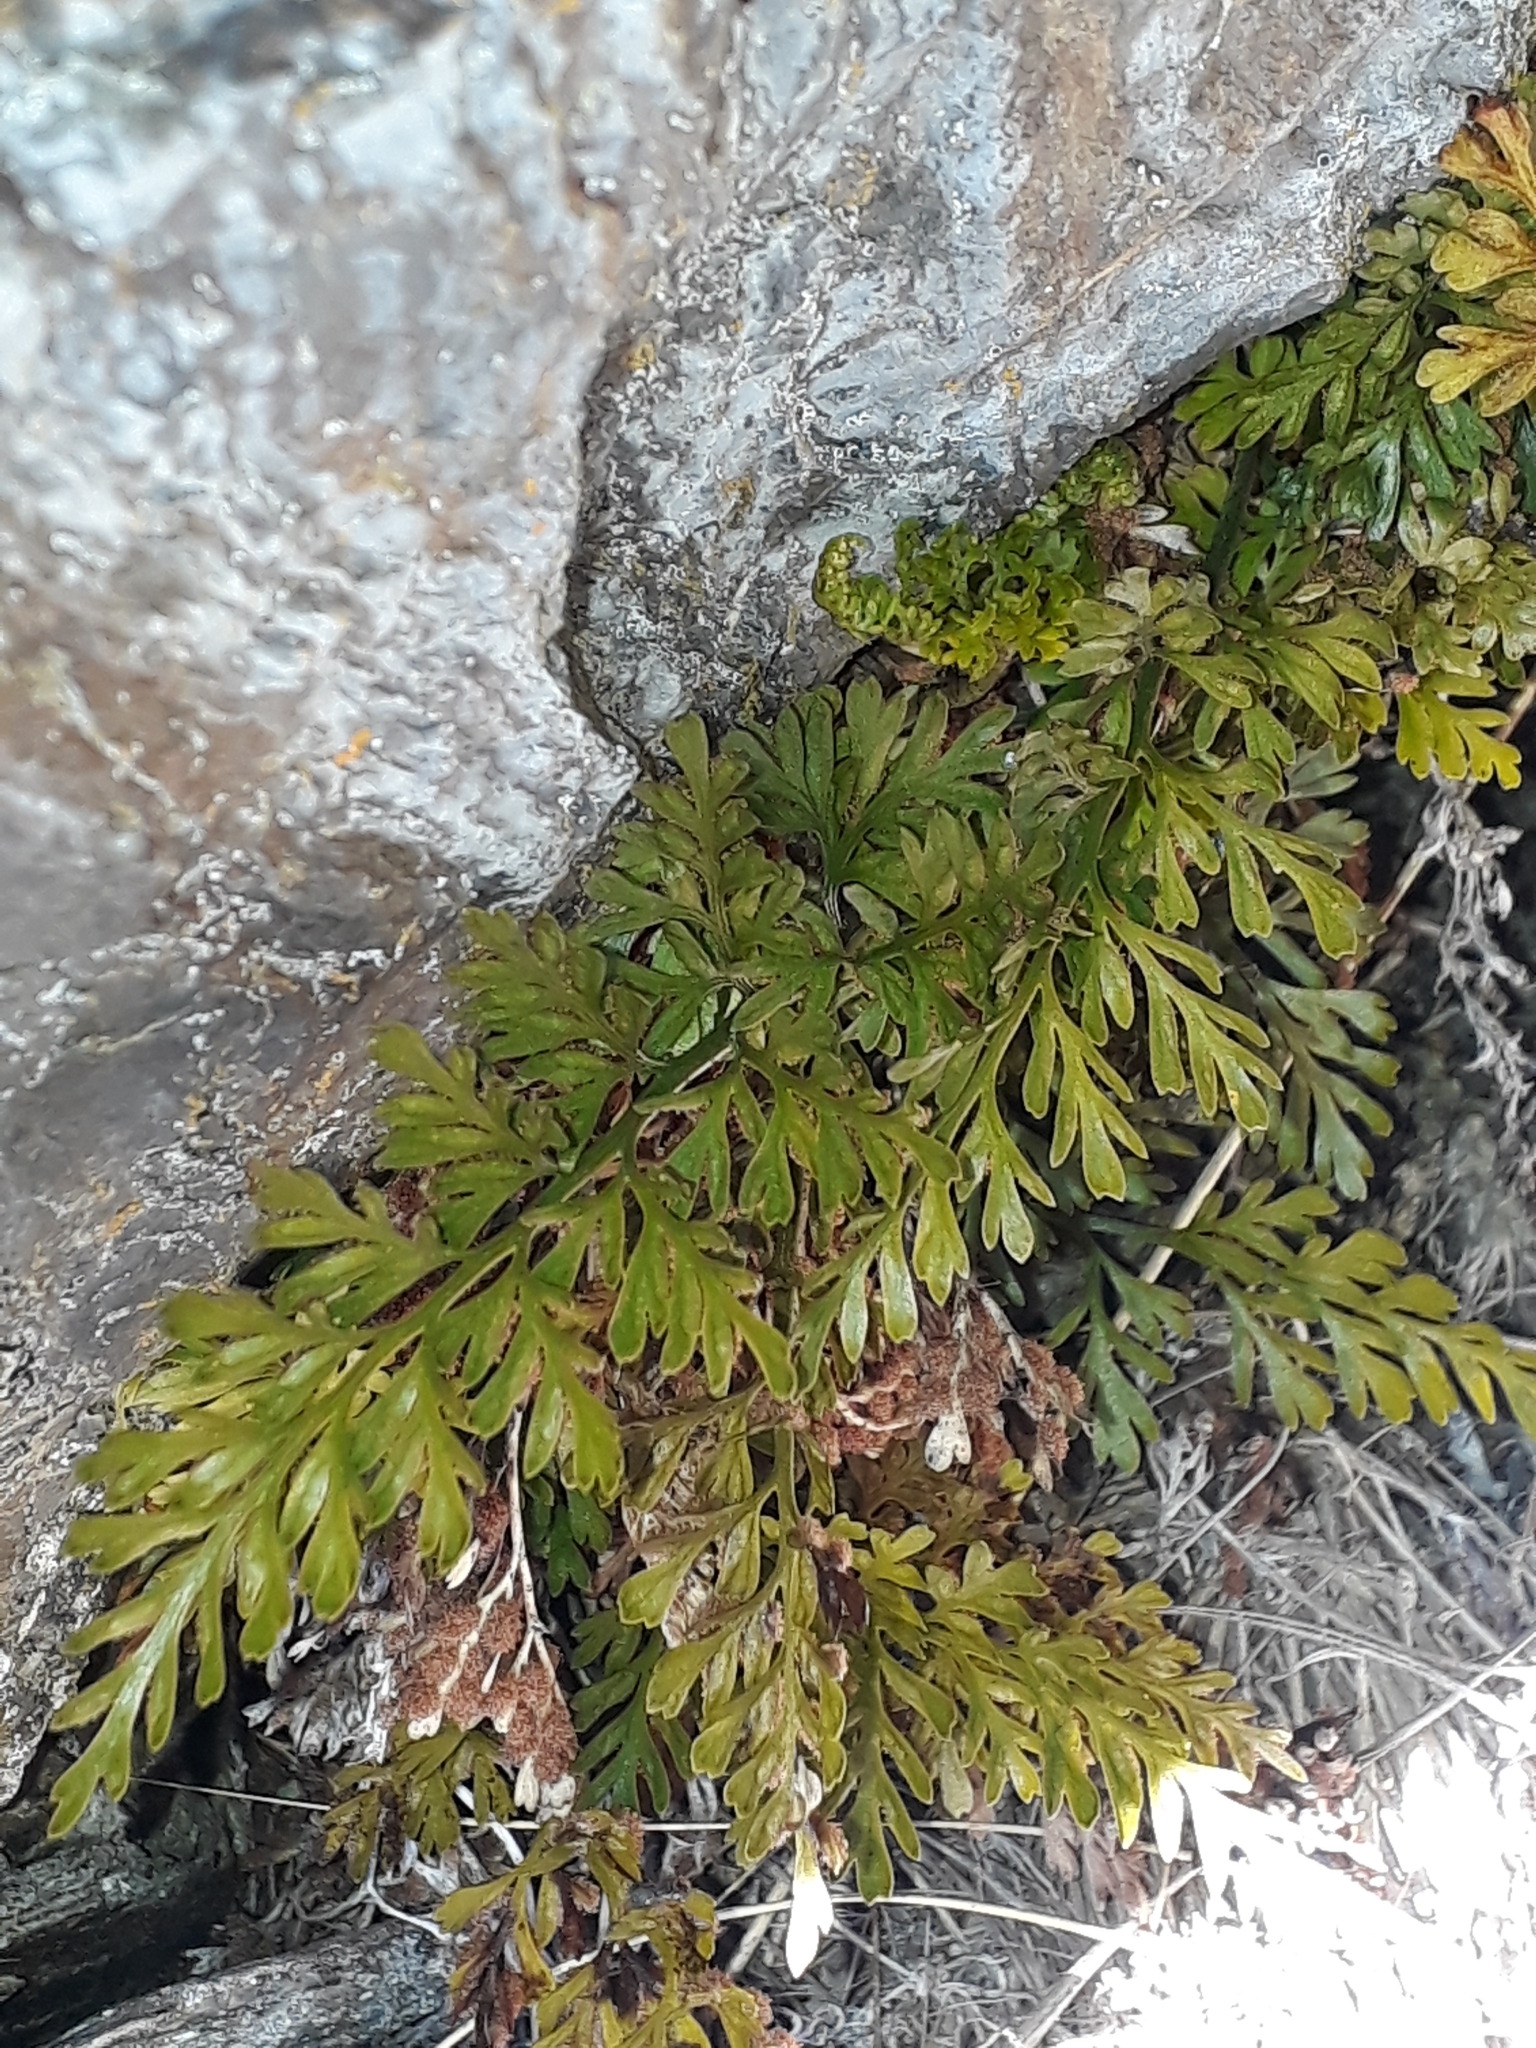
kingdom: Plantae
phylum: Tracheophyta
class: Polypodiopsida
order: Polypodiales
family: Aspleniaceae
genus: Asplenium
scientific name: Asplenium richardii
